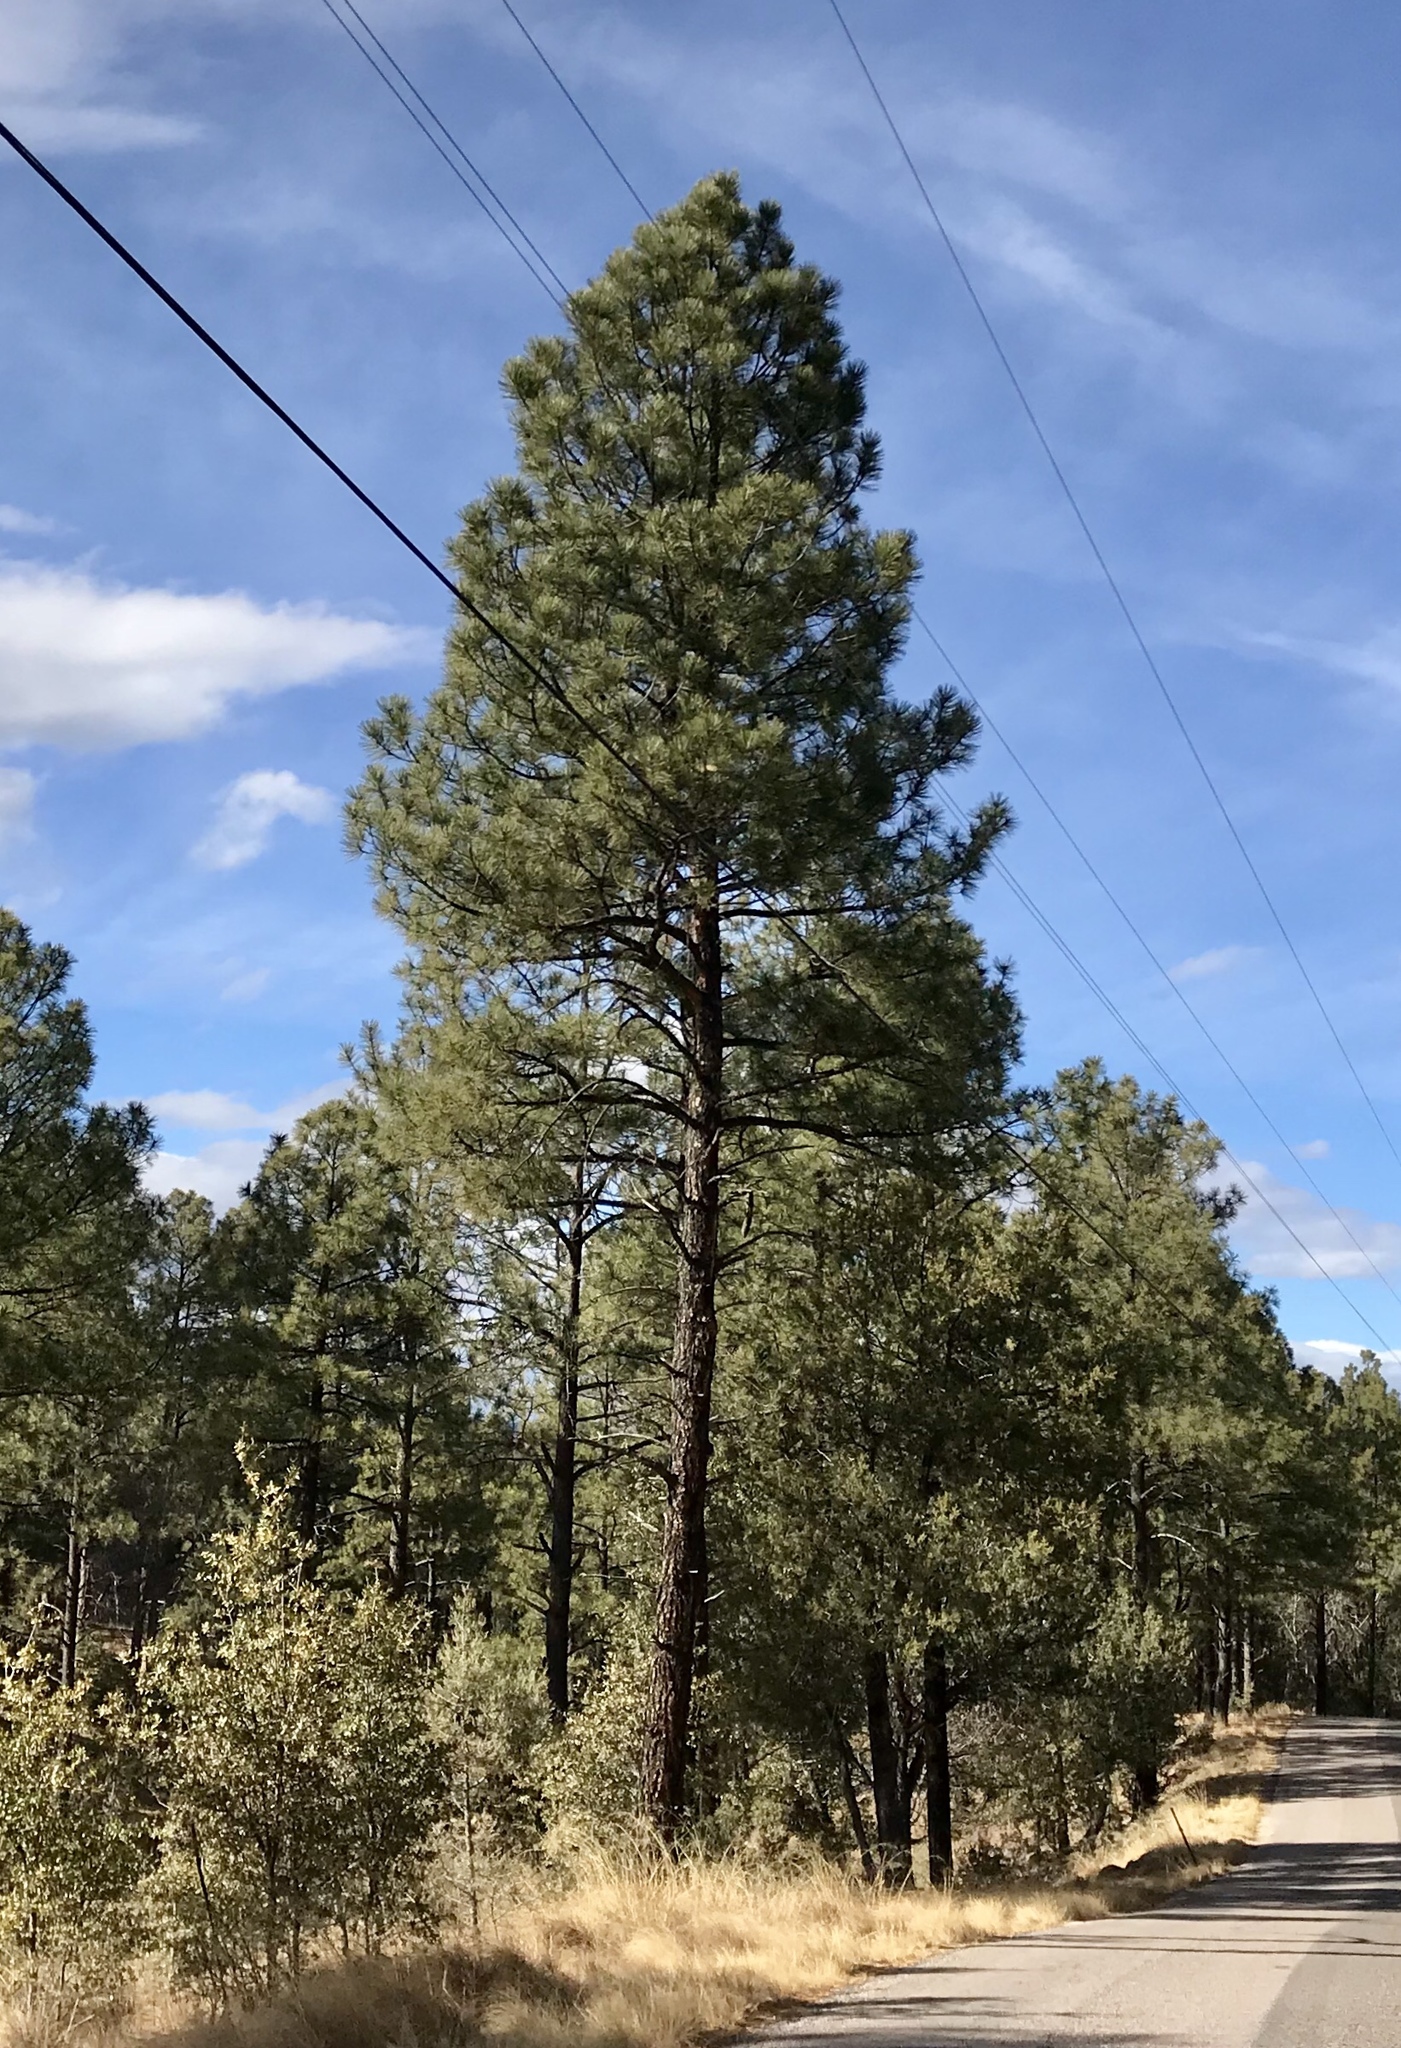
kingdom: Plantae
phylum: Tracheophyta
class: Pinopsida
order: Pinales
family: Pinaceae
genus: Pinus
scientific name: Pinus ponderosa
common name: Western yellow-pine
